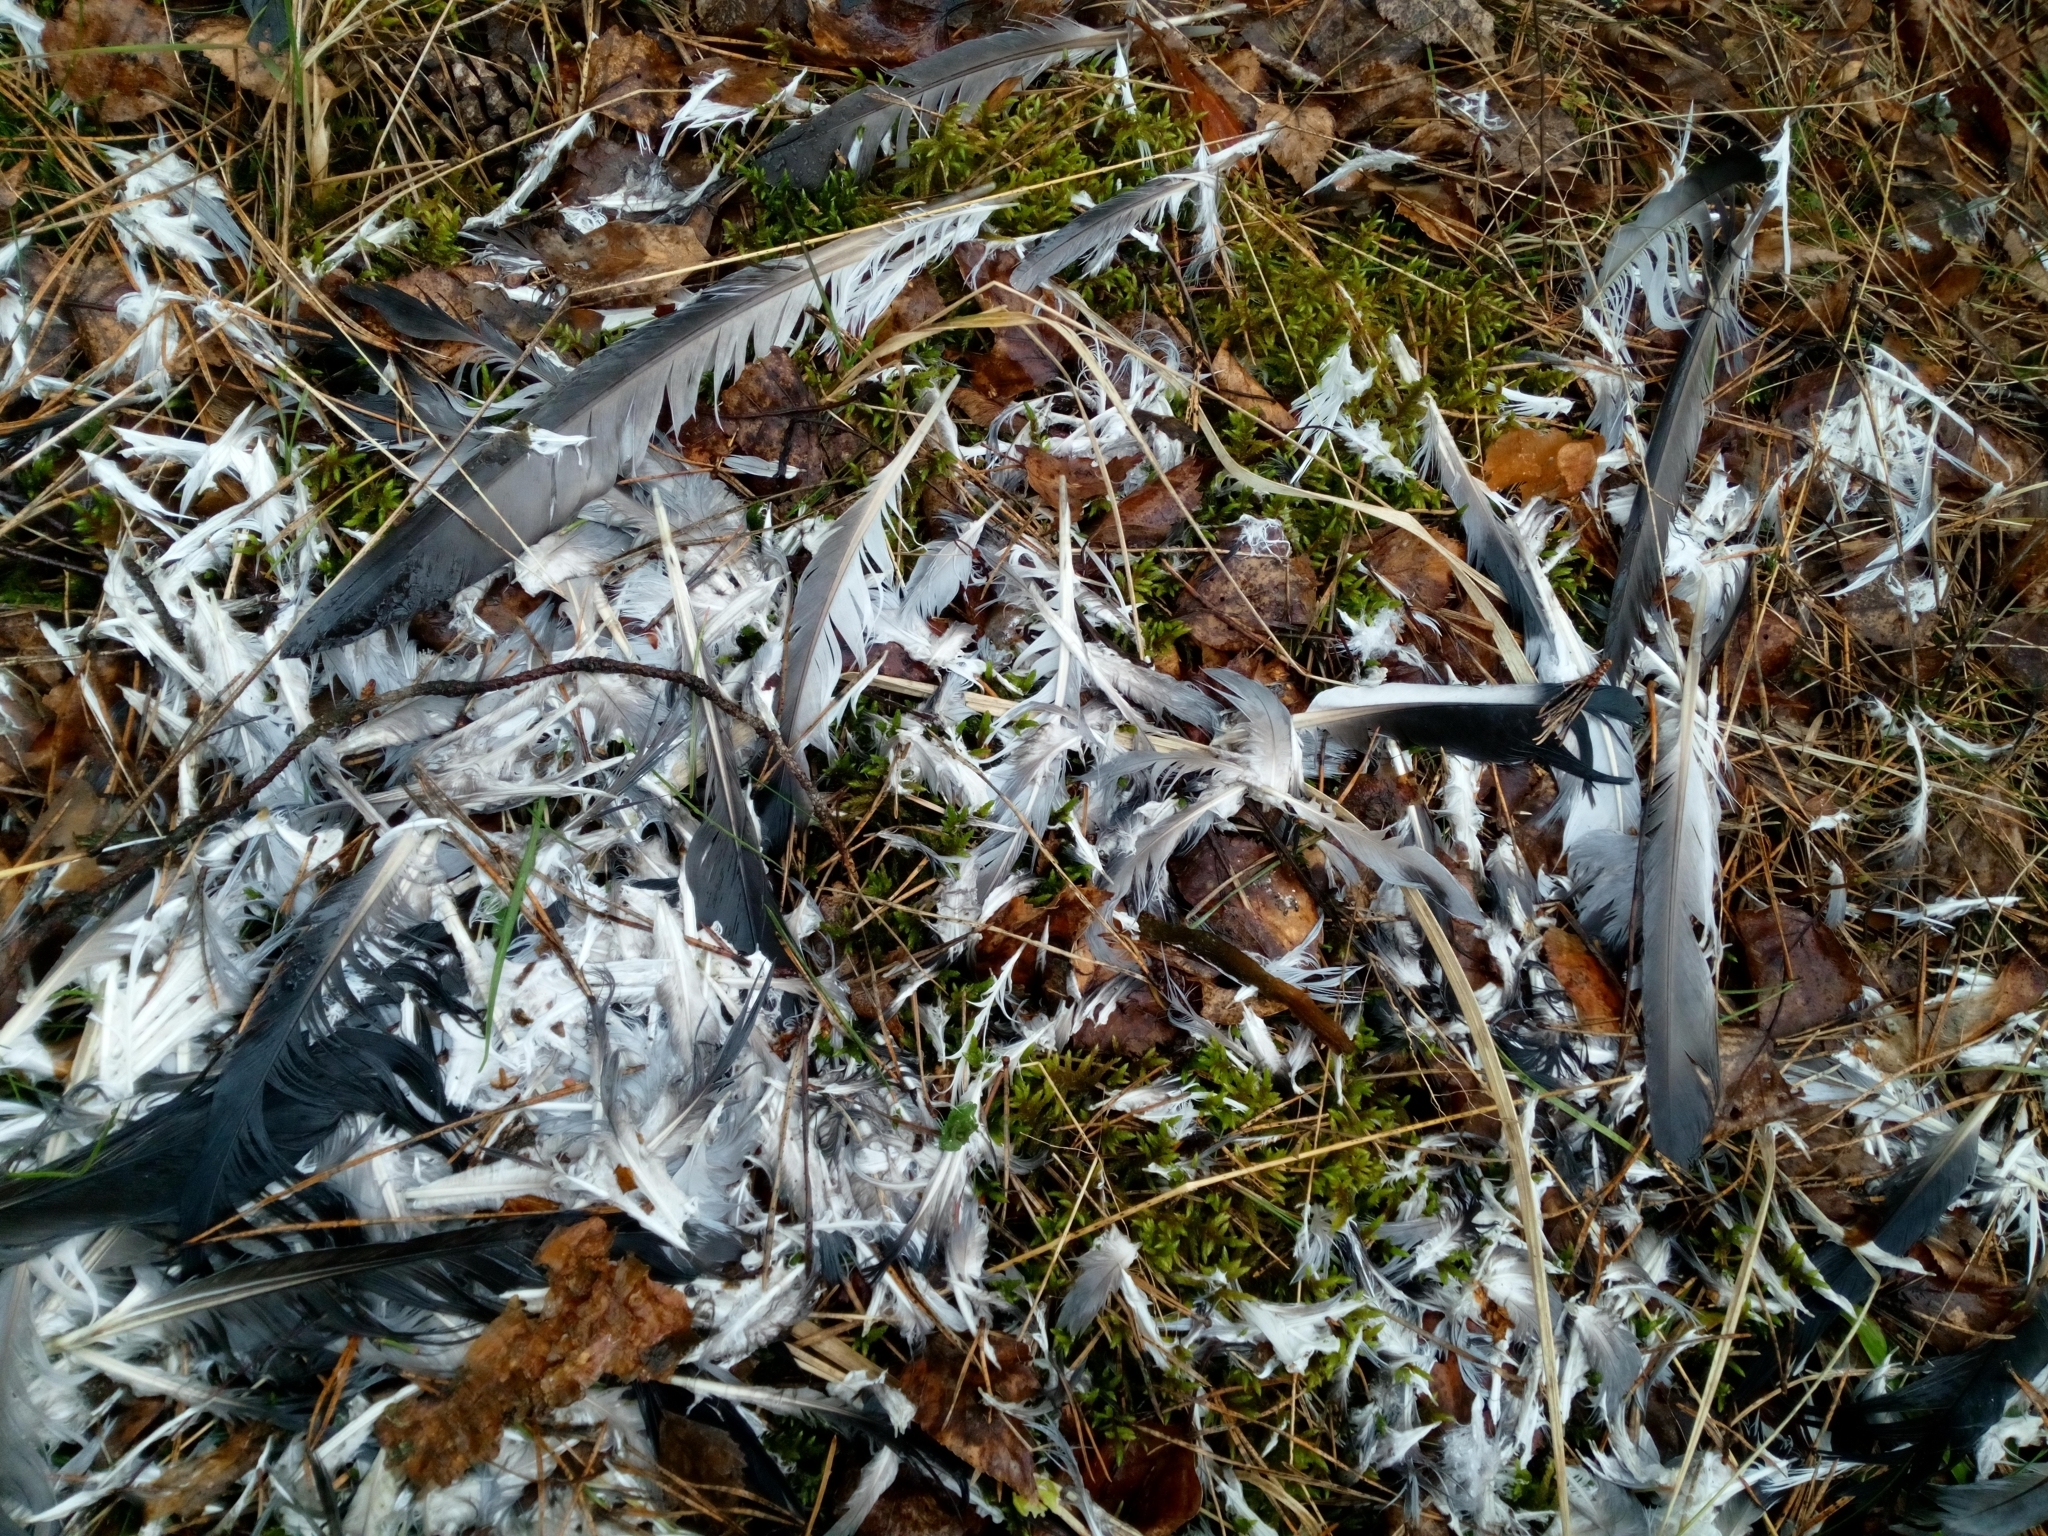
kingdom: Animalia
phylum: Chordata
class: Aves
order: Columbiformes
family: Columbidae
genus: Columba
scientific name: Columba livia
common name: Rock pigeon
